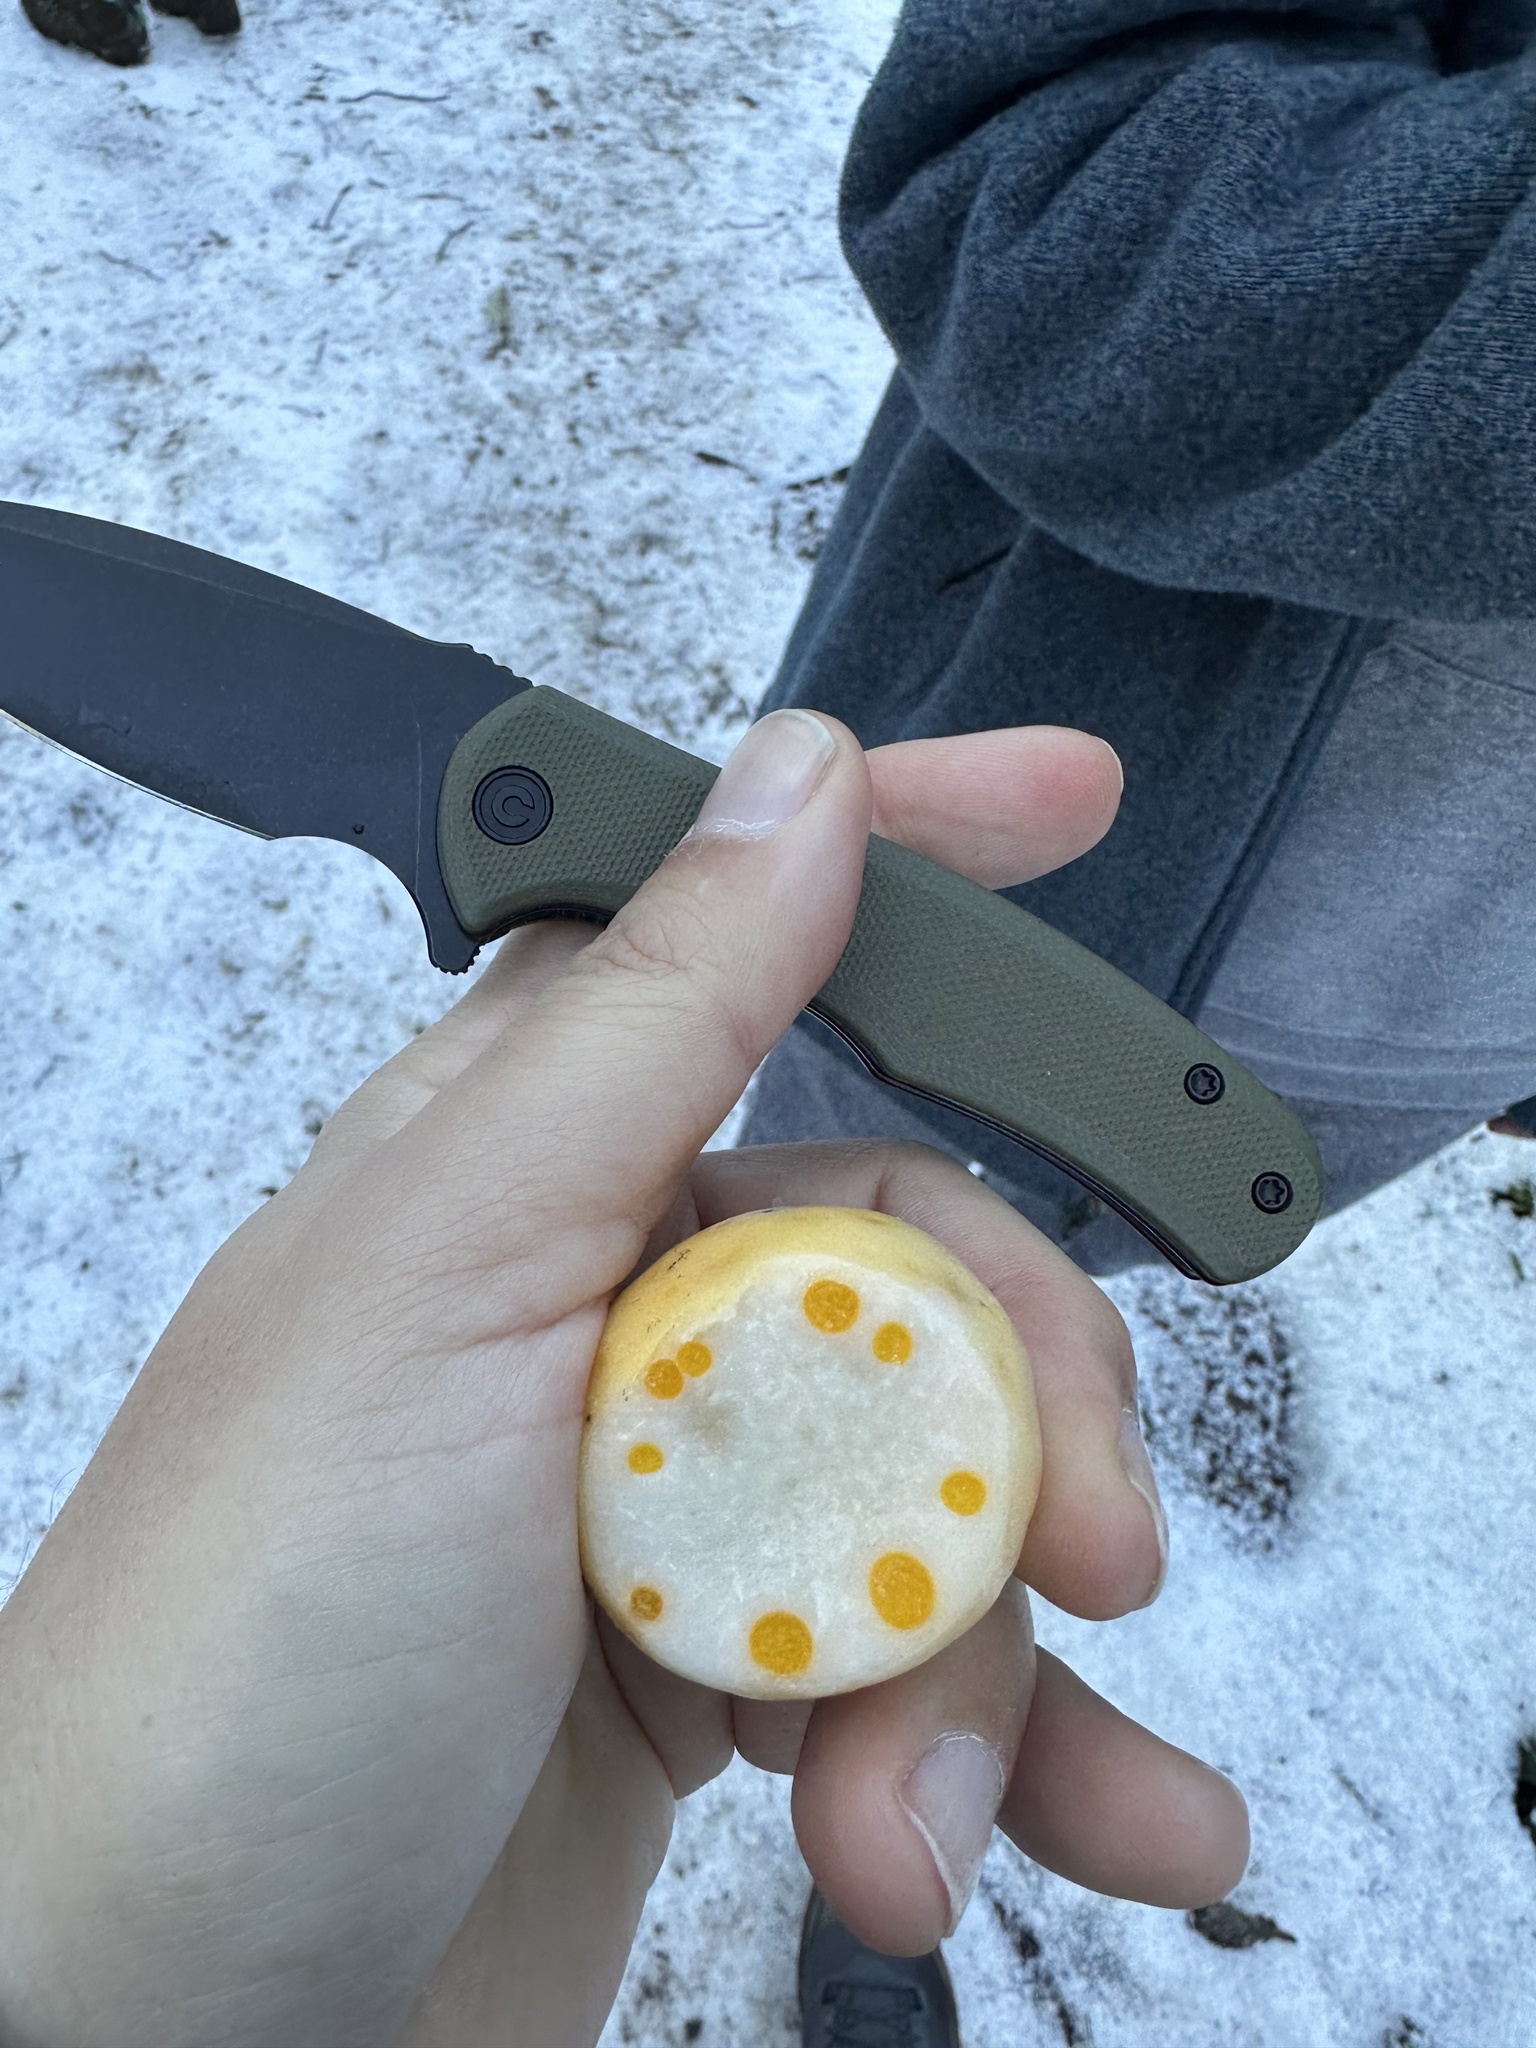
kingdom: Fungi
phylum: Ascomycota
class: Leotiomycetes
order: Cyttariales
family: Cyttariaceae
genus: Cyttaria
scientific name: Cyttaria darwinii
